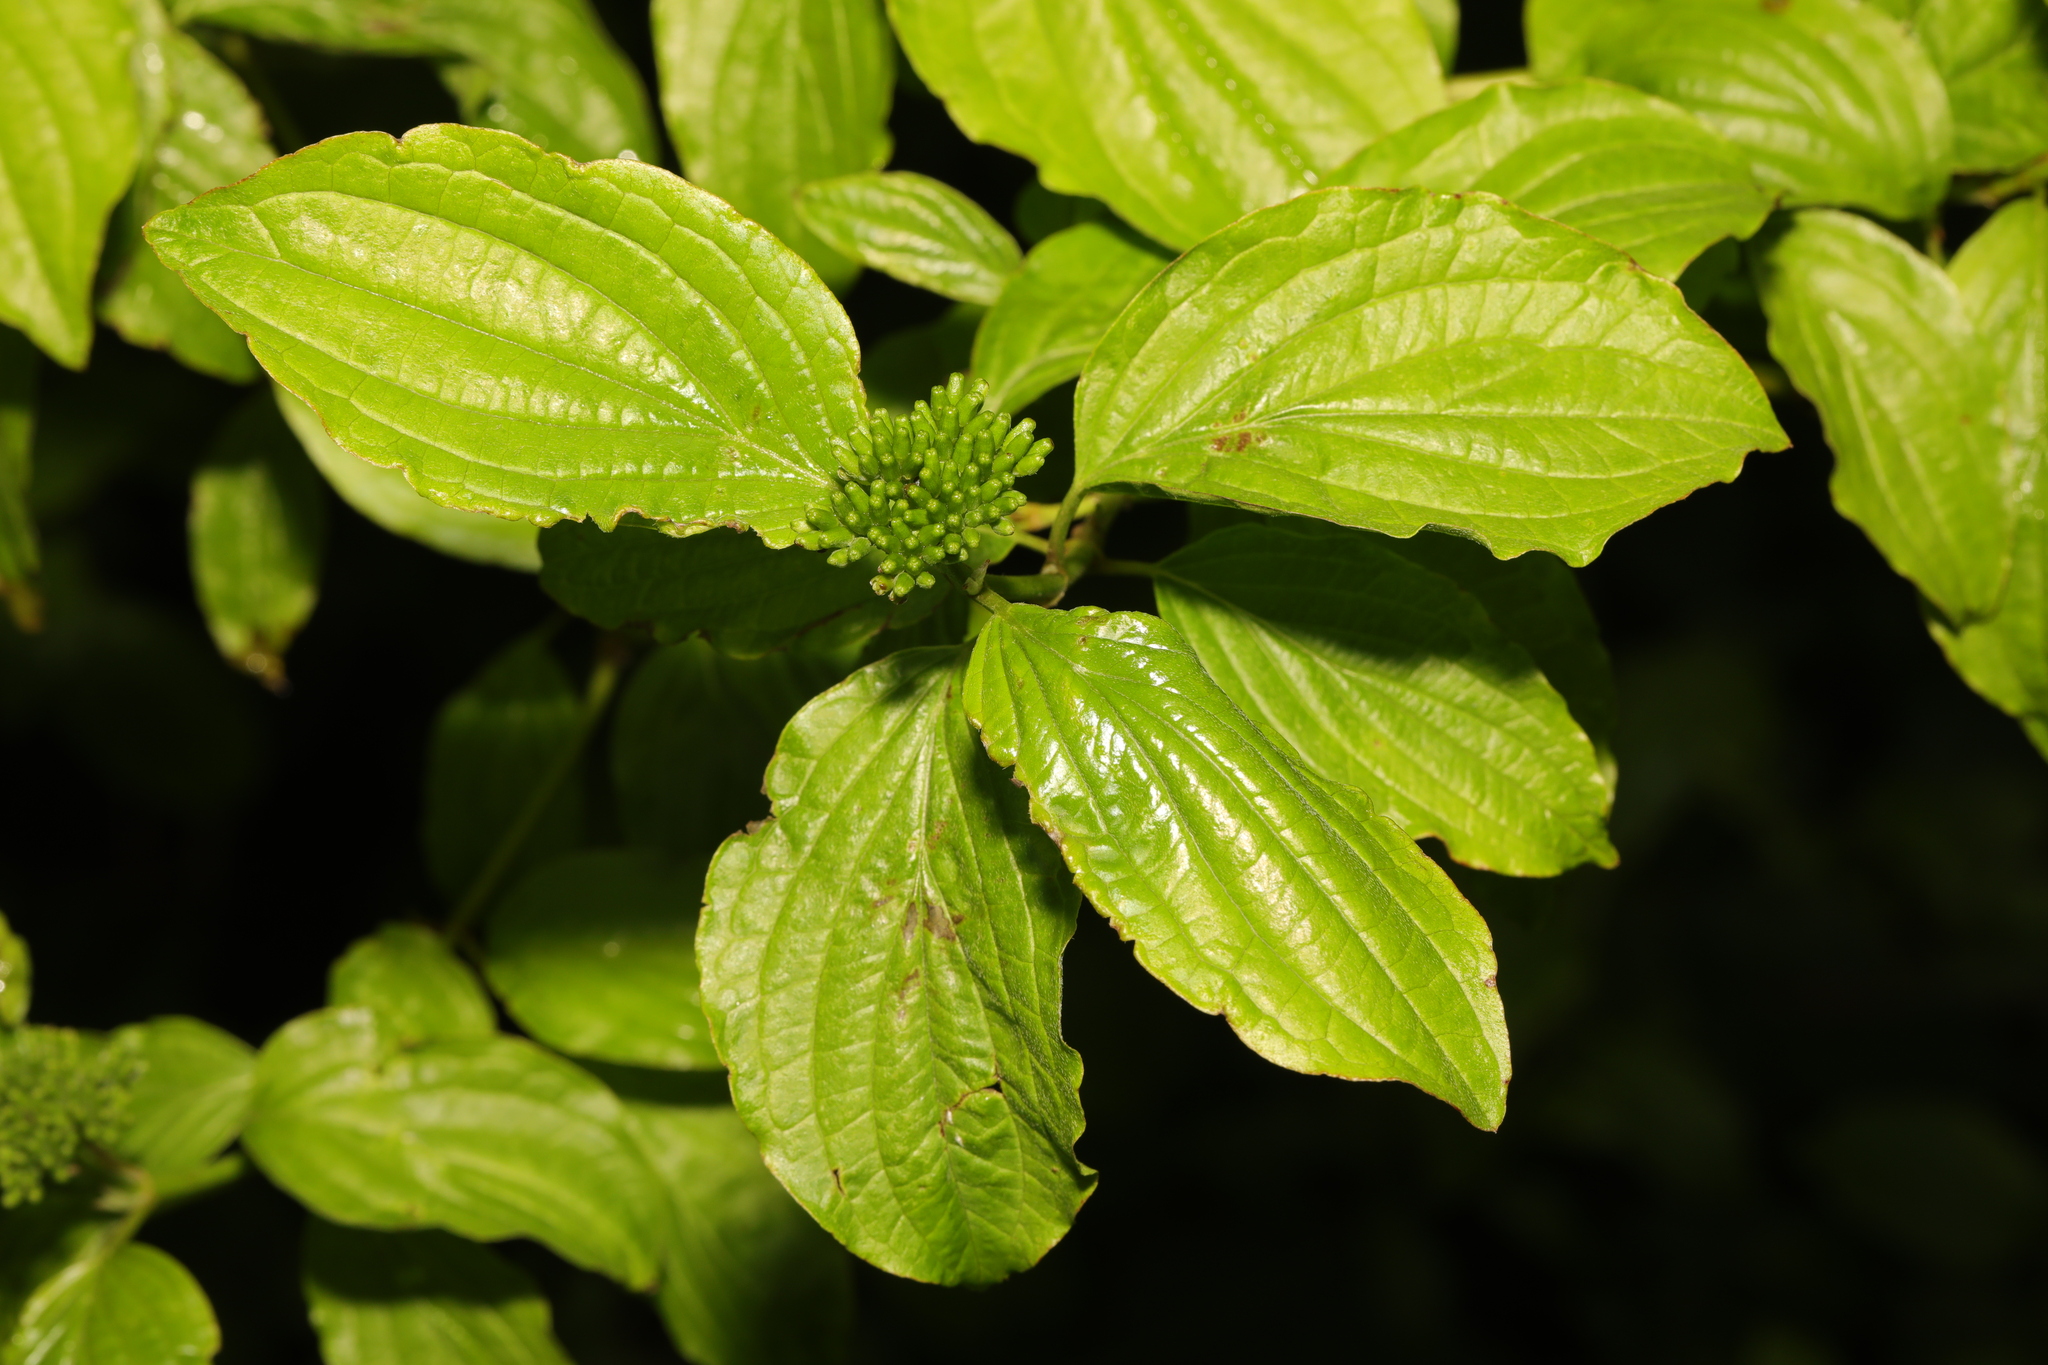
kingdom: Plantae
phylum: Tracheophyta
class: Magnoliopsida
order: Cornales
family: Cornaceae
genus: Cornus
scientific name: Cornus sanguinea
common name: Dogwood
